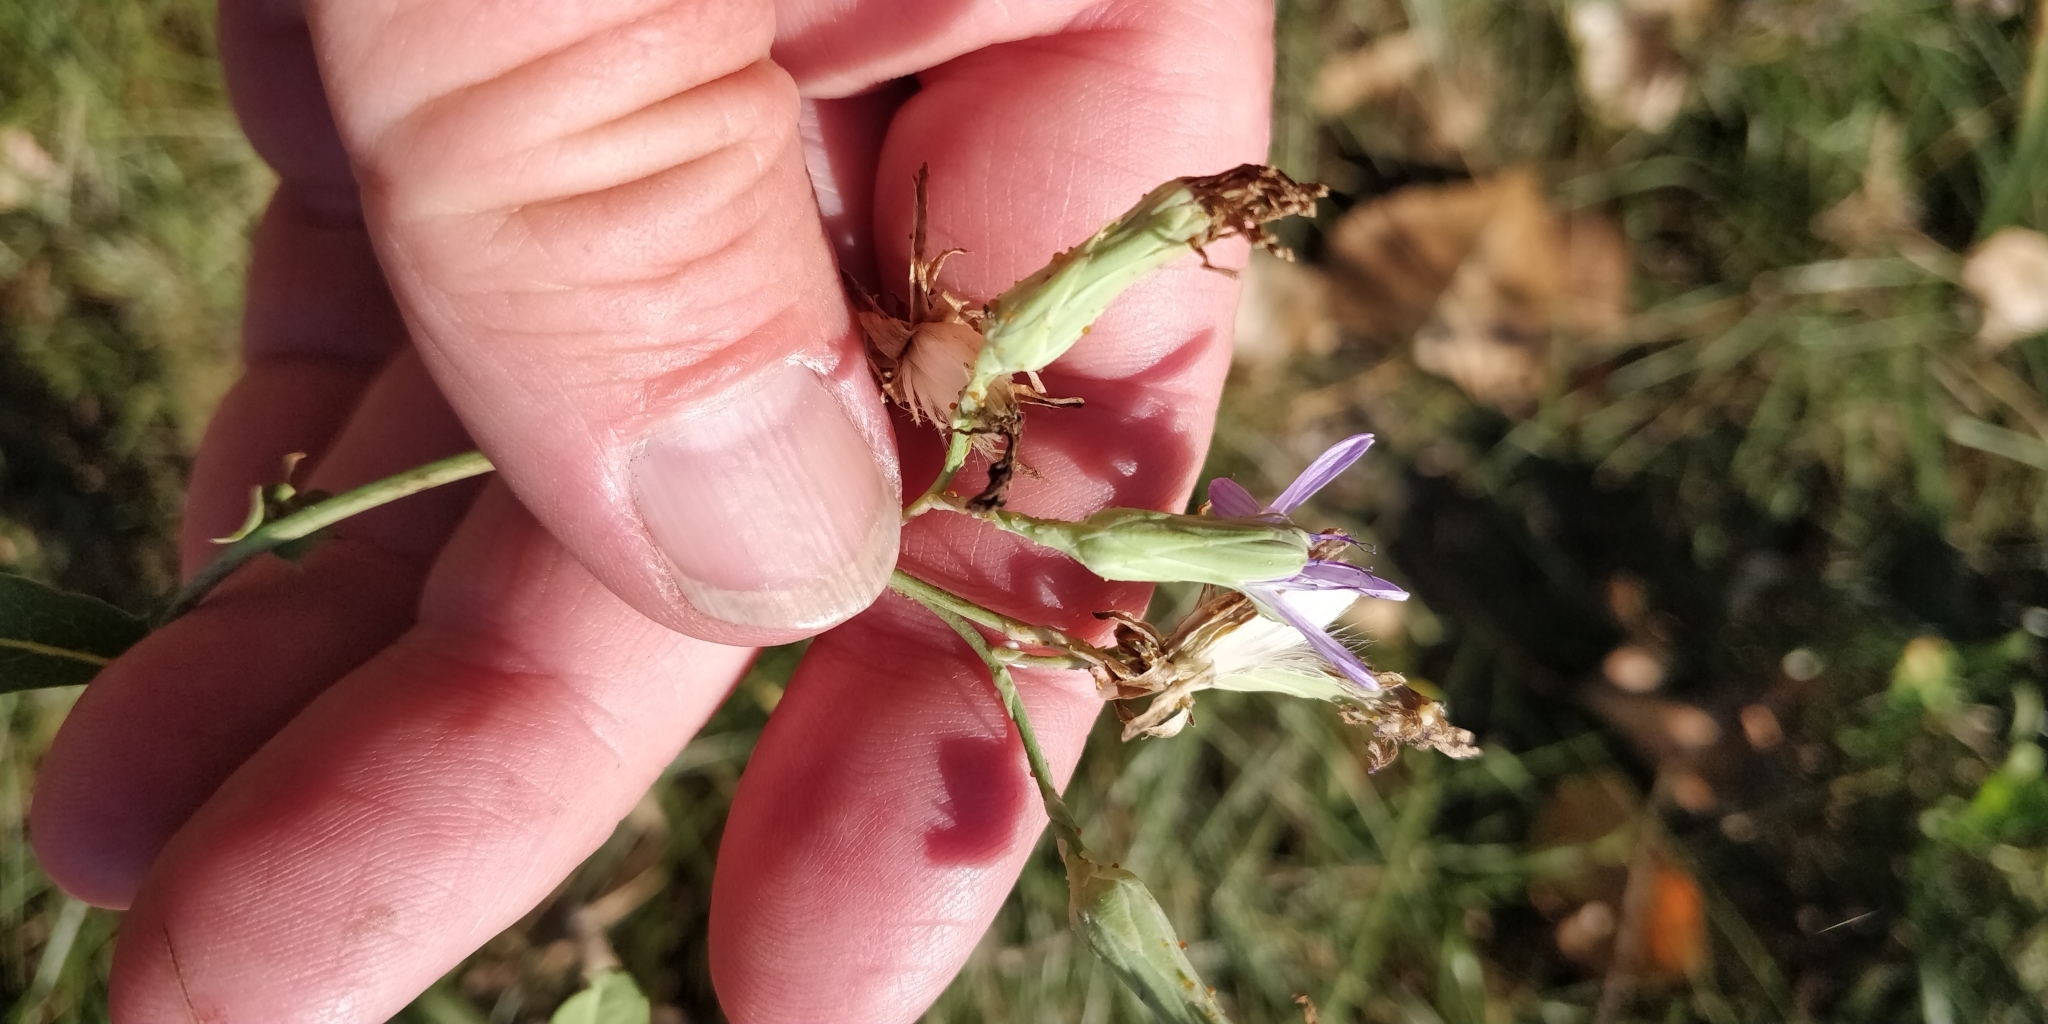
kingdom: Plantae
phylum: Tracheophyta
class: Magnoliopsida
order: Asterales
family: Asteraceae
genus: Lactuca
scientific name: Lactuca tatarica
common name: Blue lettuce
